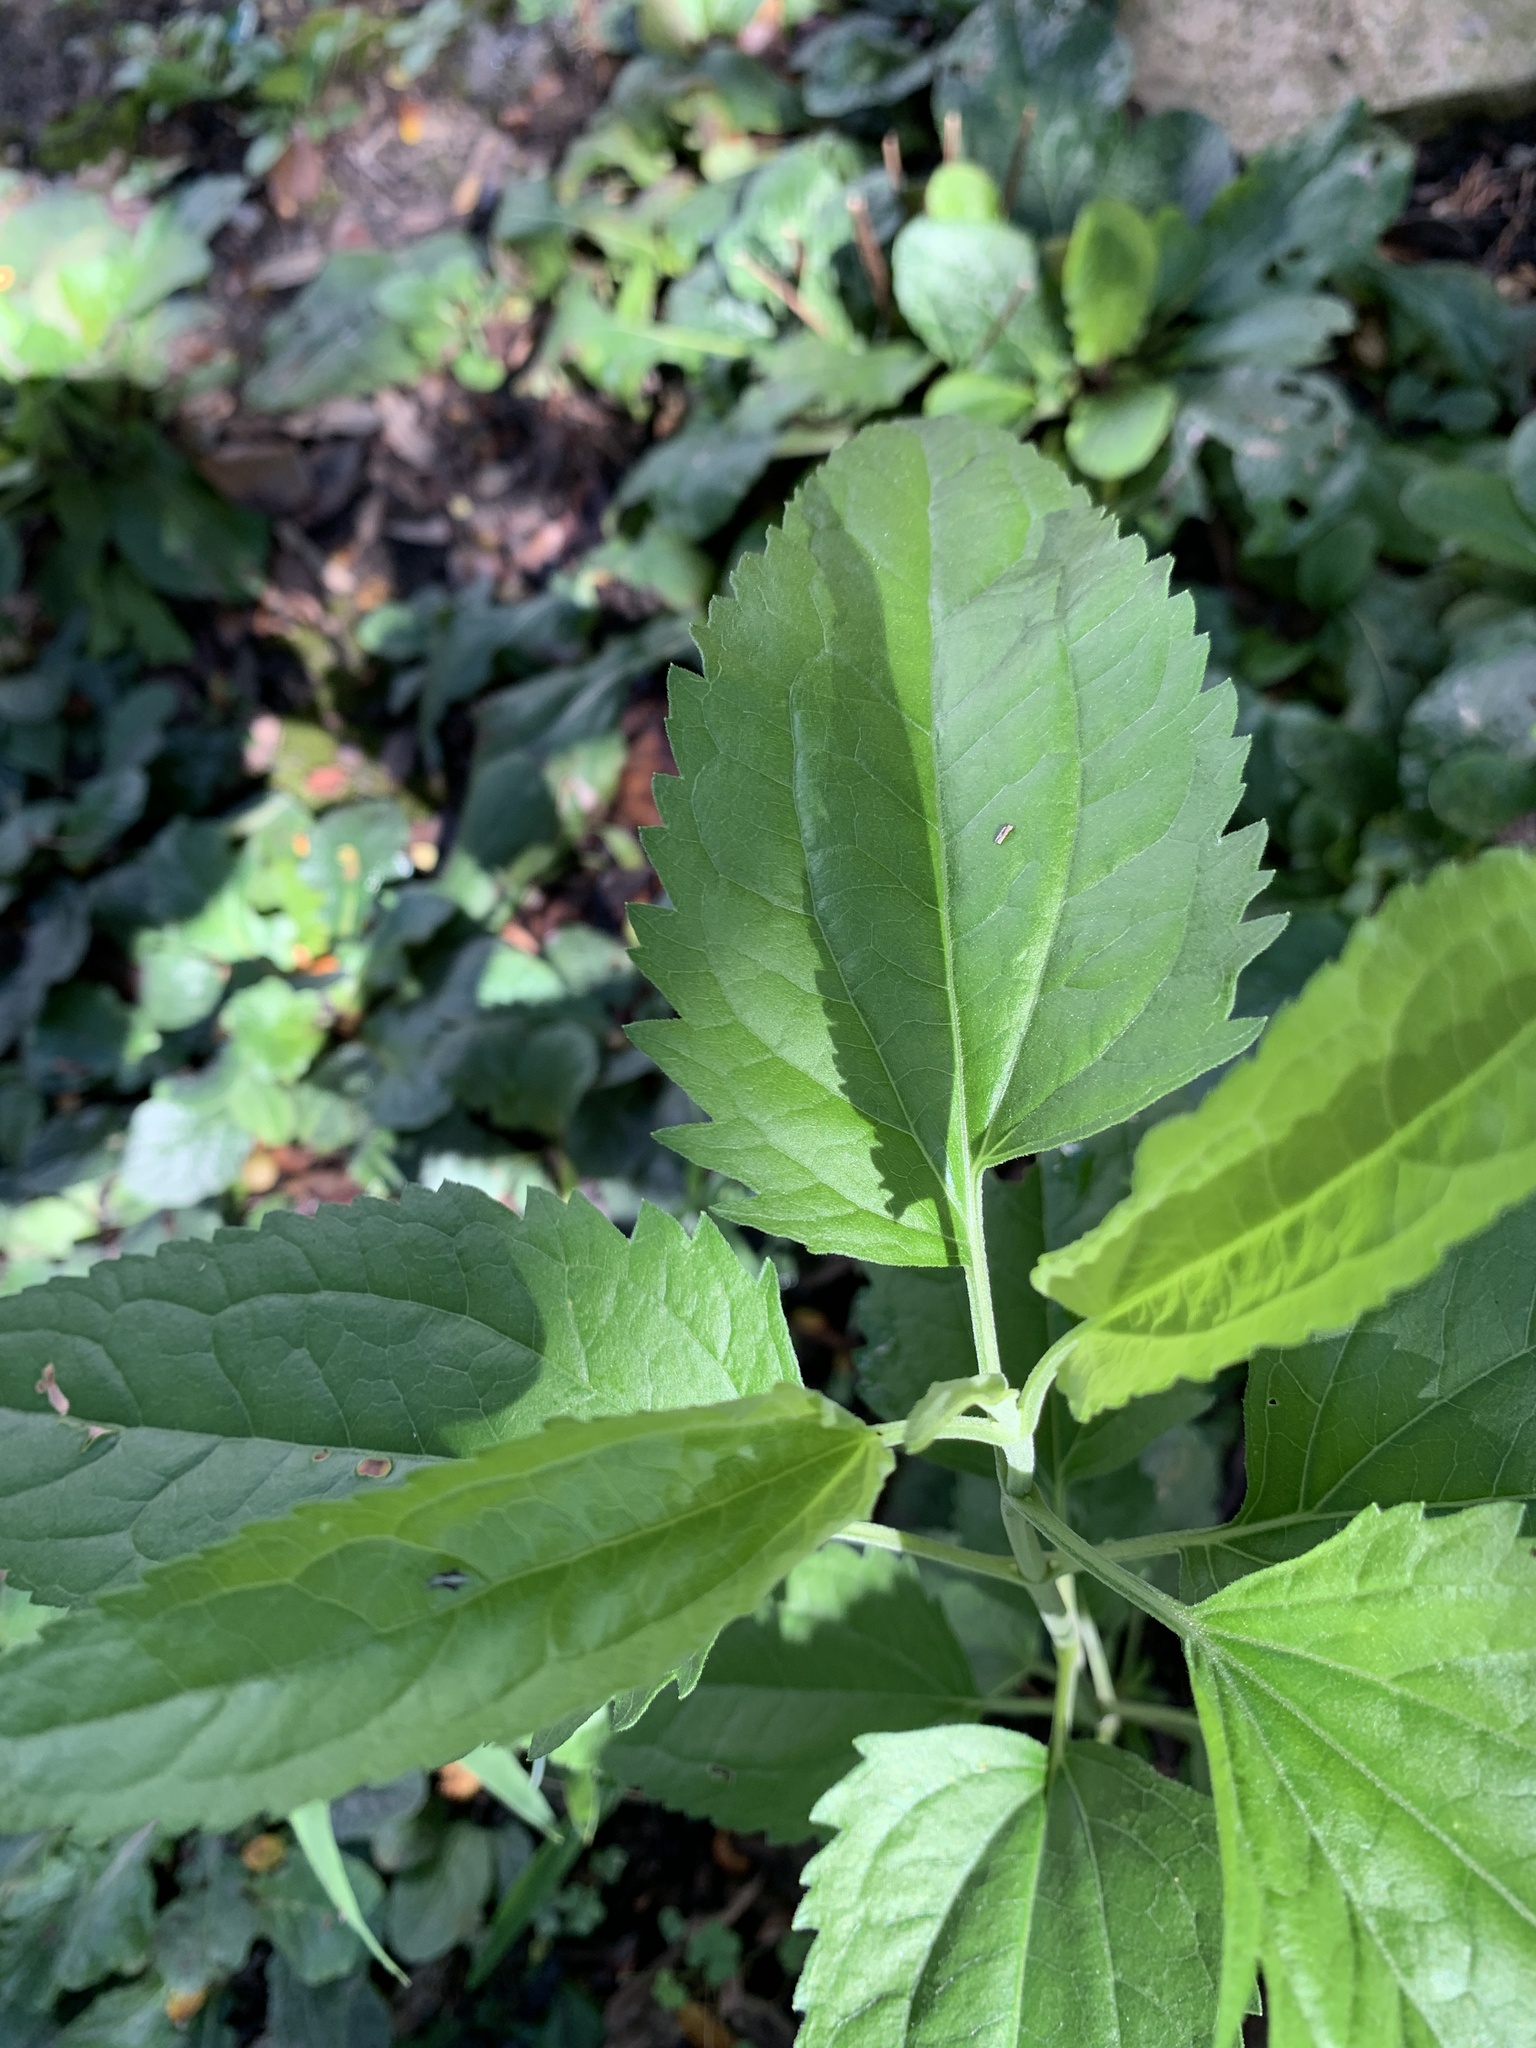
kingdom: Plantae
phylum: Tracheophyta
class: Magnoliopsida
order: Asterales
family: Asteraceae
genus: Eupatorium
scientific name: Eupatorium serotinum
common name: Late boneset
